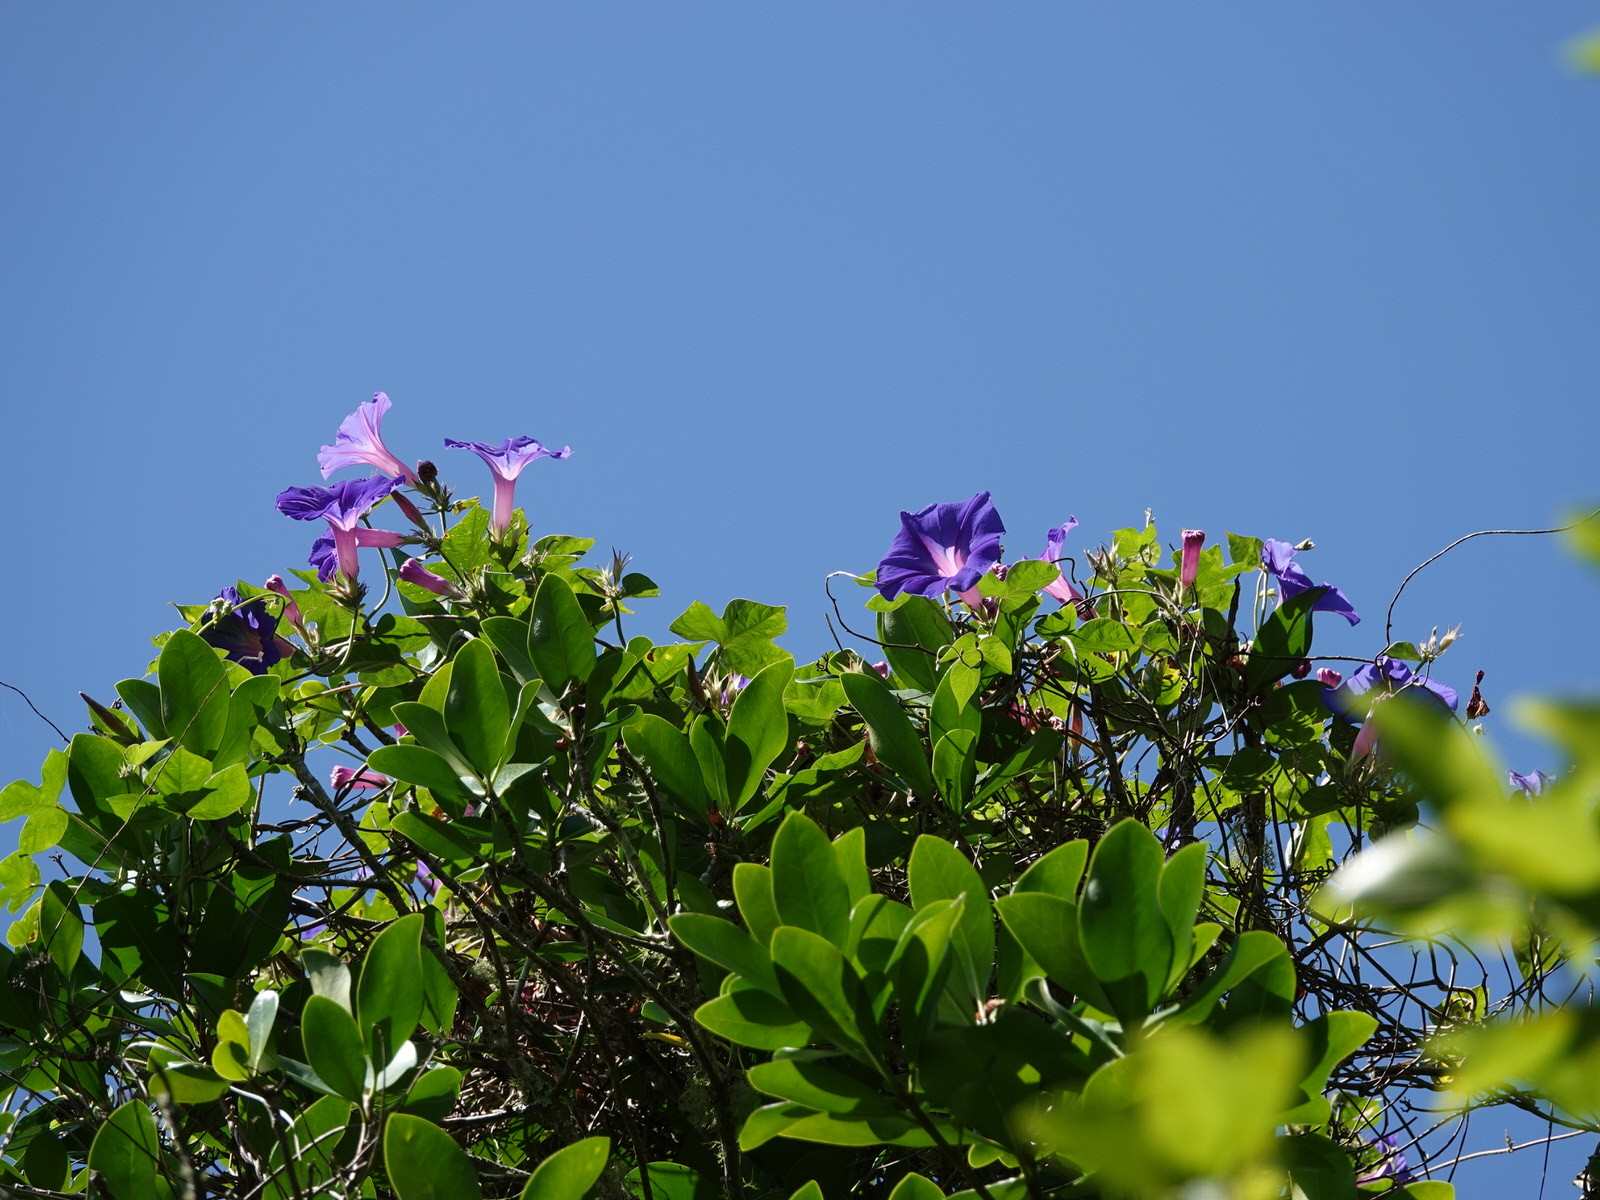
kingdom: Plantae
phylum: Tracheophyta
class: Magnoliopsida
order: Solanales
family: Convolvulaceae
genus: Ipomoea
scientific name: Ipomoea indica
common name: Blue dawnflower
